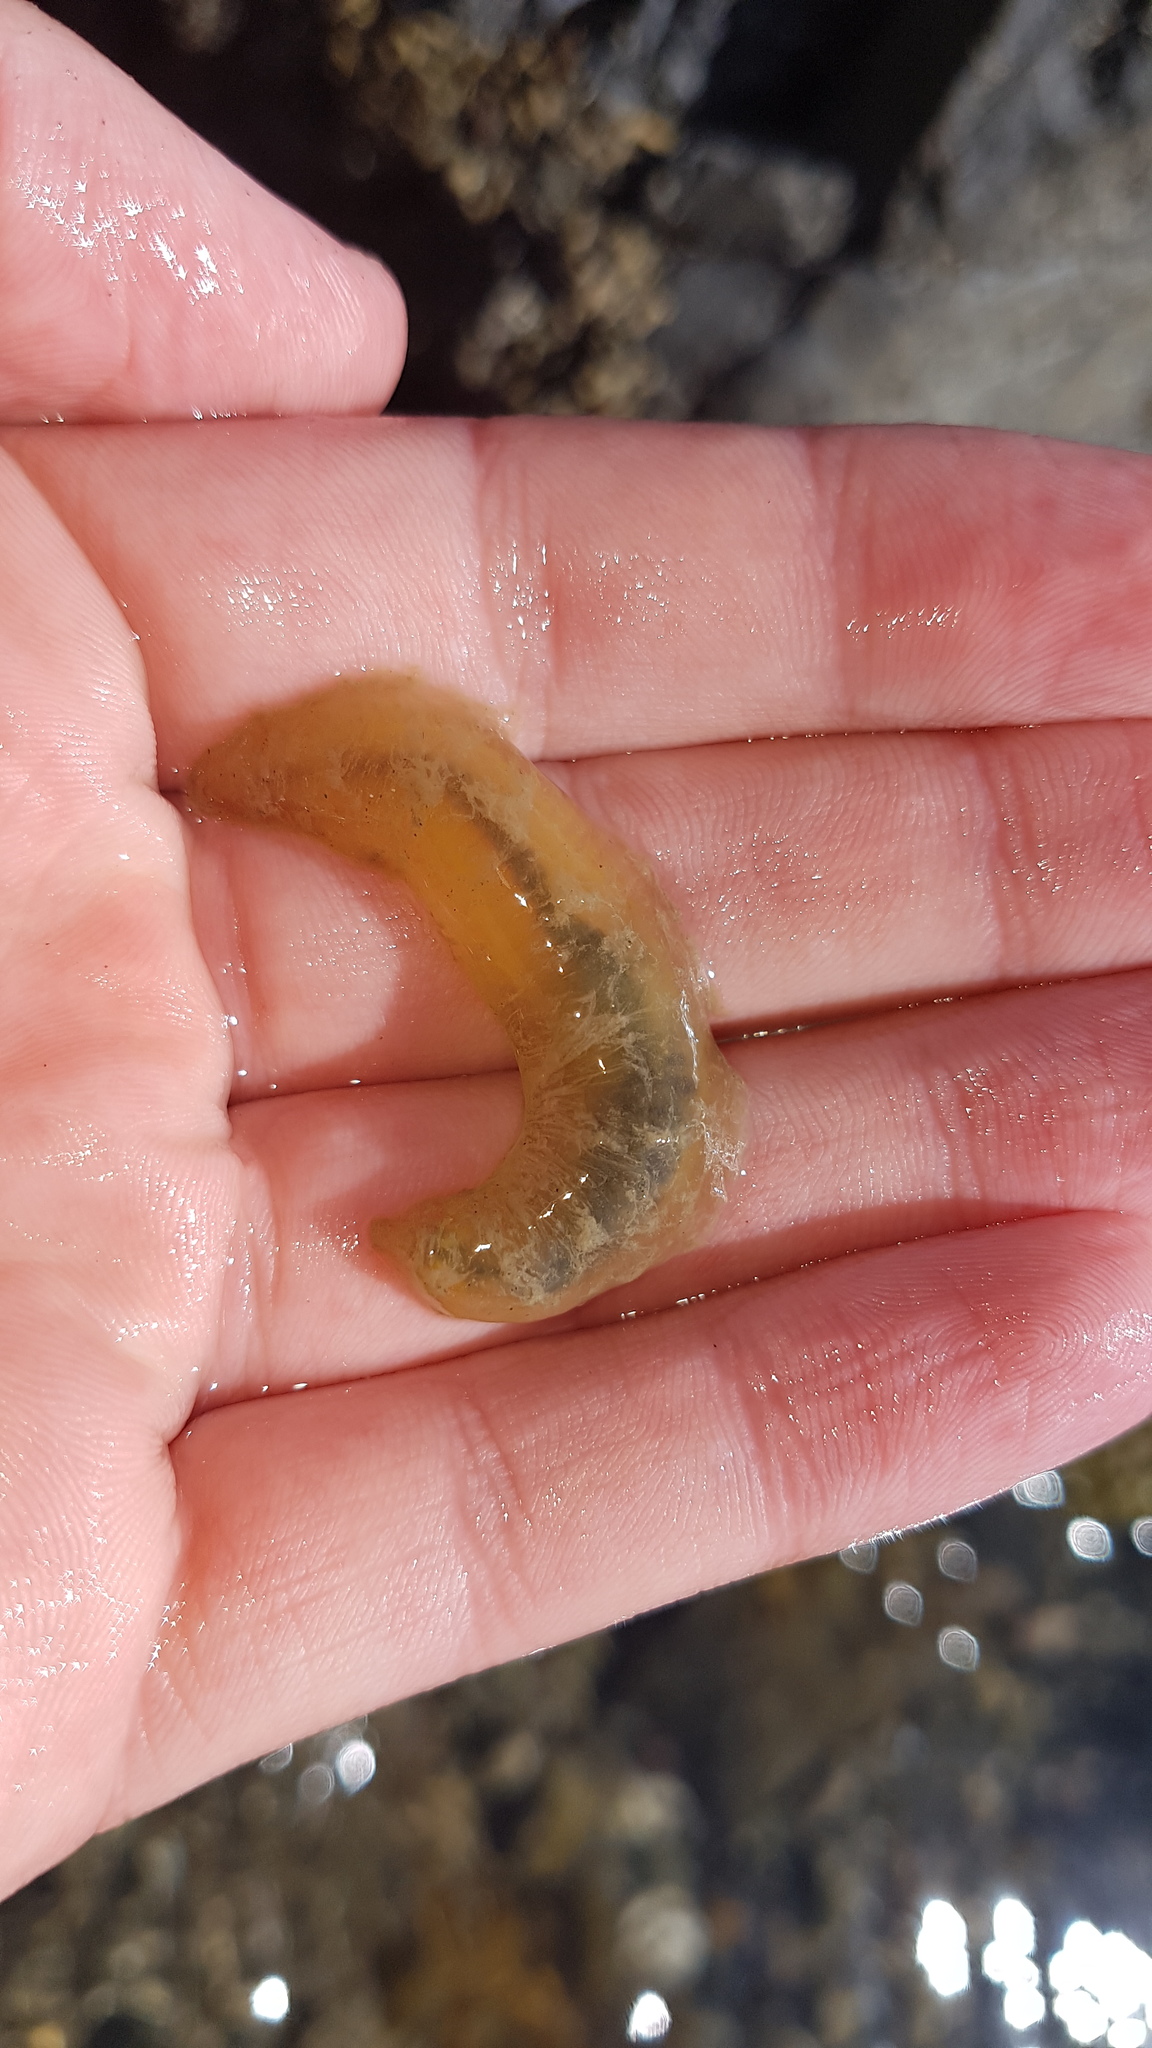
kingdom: Animalia
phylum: Annelida
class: Polychaeta
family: Flabelligeridae
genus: Flabelligera
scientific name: Flabelligera bicolor
